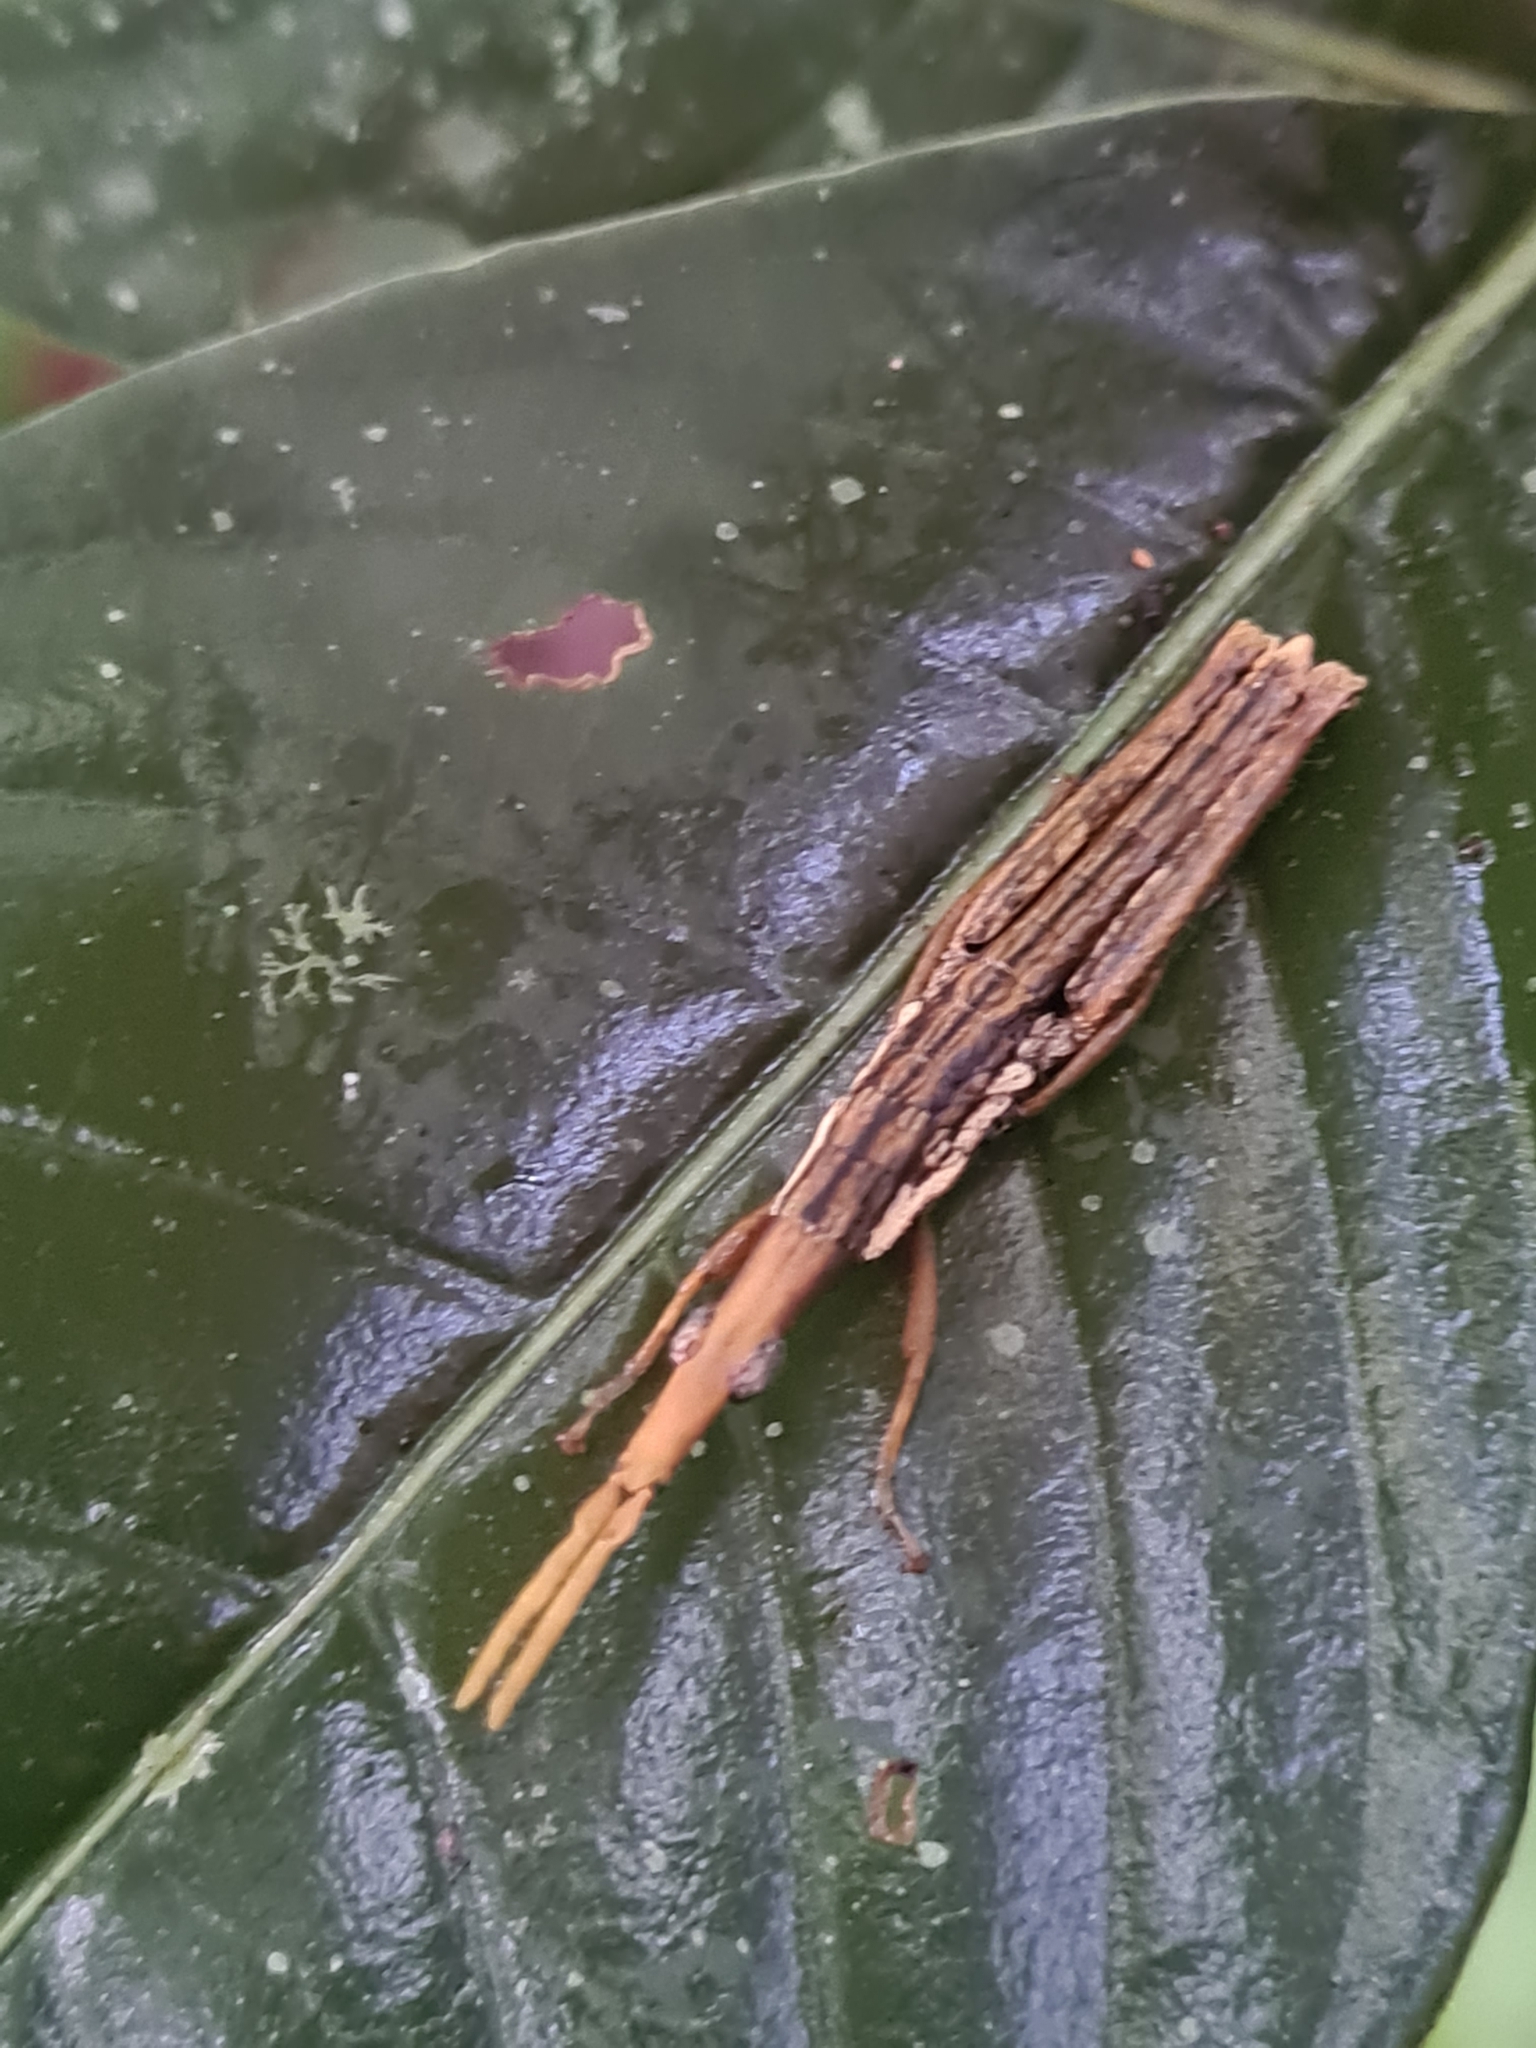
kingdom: Animalia
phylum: Arthropoda
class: Insecta
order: Orthoptera
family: Pyrgomorphidae
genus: Omura
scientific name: Omura congrua
